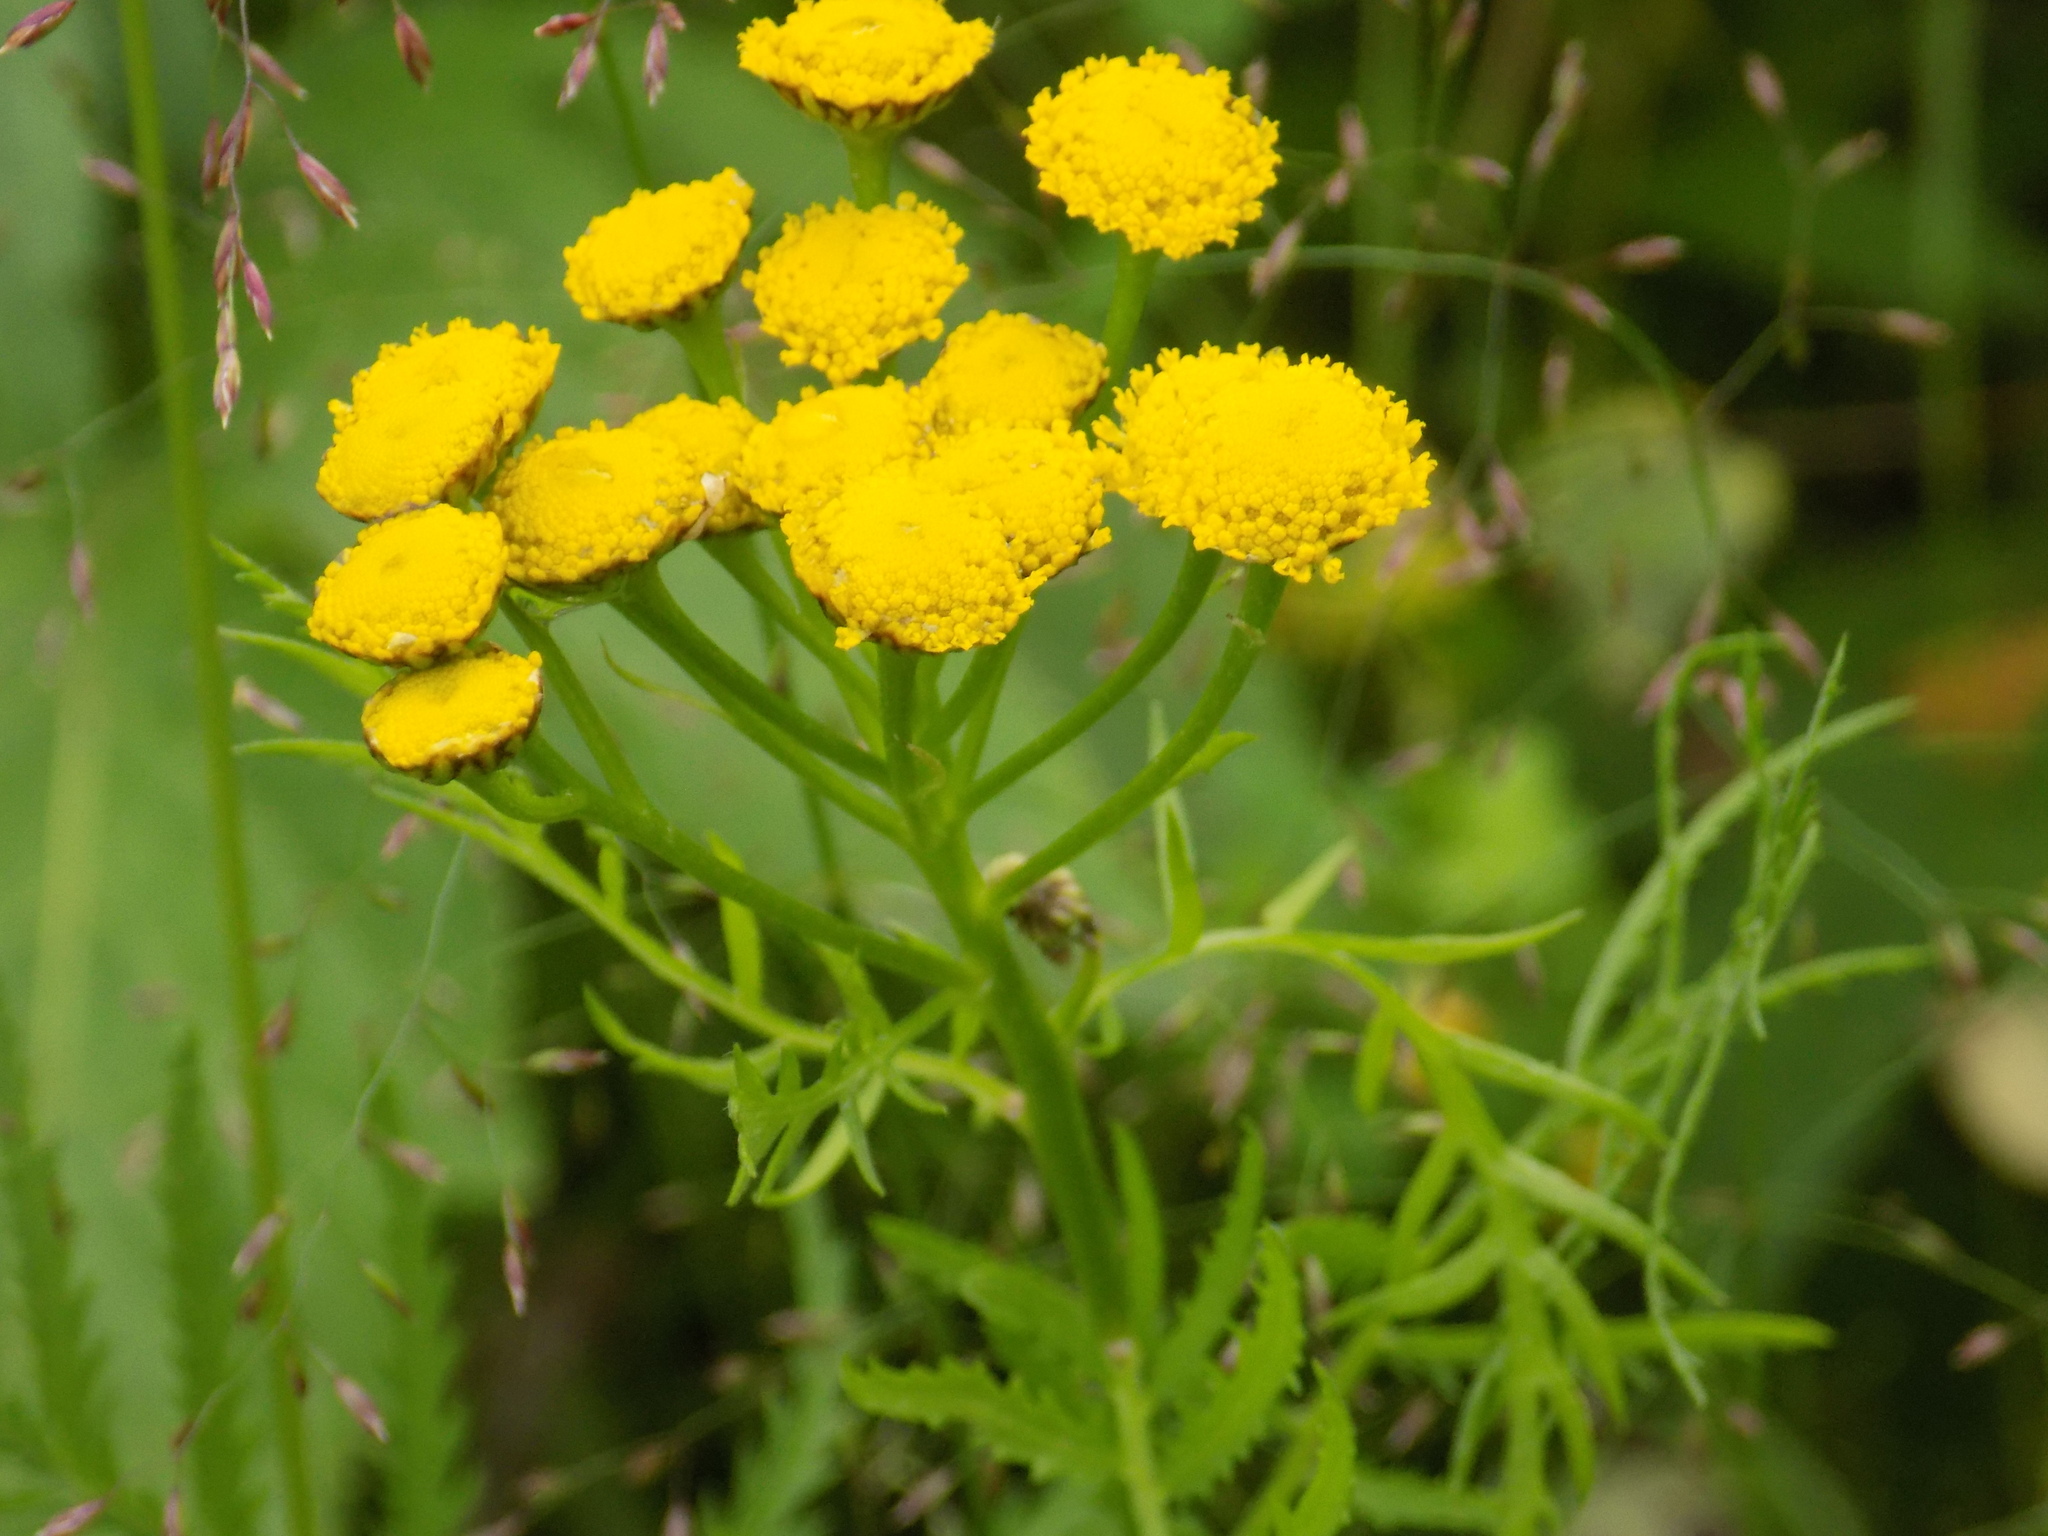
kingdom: Plantae
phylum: Tracheophyta
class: Magnoliopsida
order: Asterales
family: Asteraceae
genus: Tanacetum
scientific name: Tanacetum vulgare
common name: Common tansy
